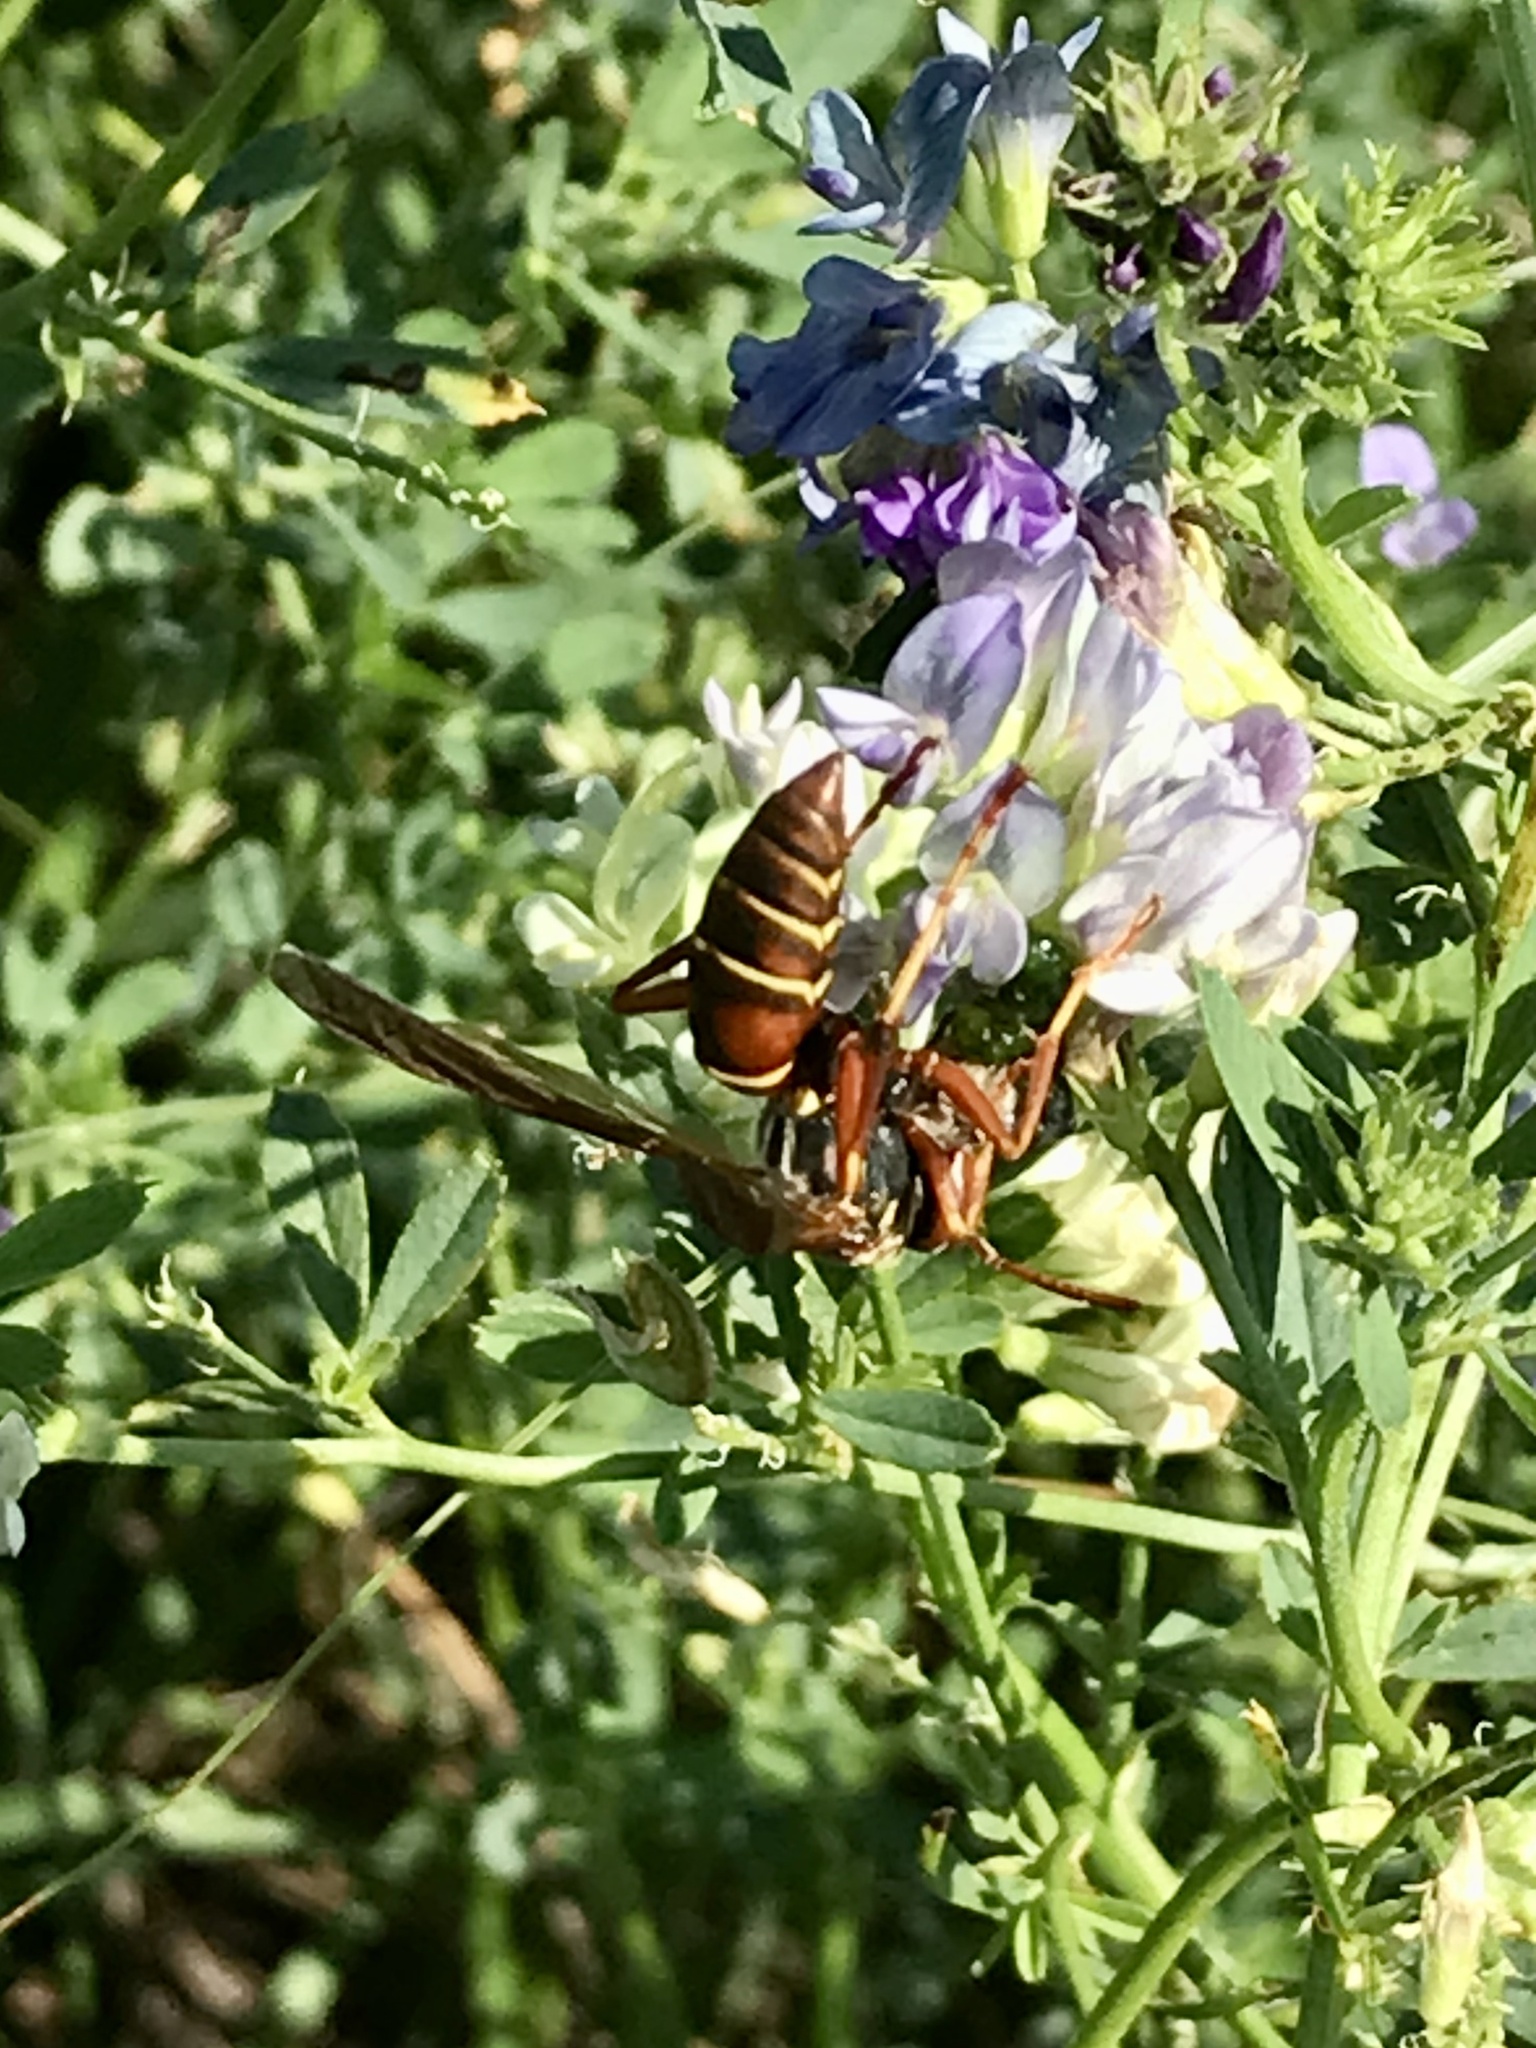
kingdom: Animalia
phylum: Arthropoda
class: Insecta
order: Hymenoptera
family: Eumenidae
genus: Polistes
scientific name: Polistes fuscatus
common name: Dark paper wasp
